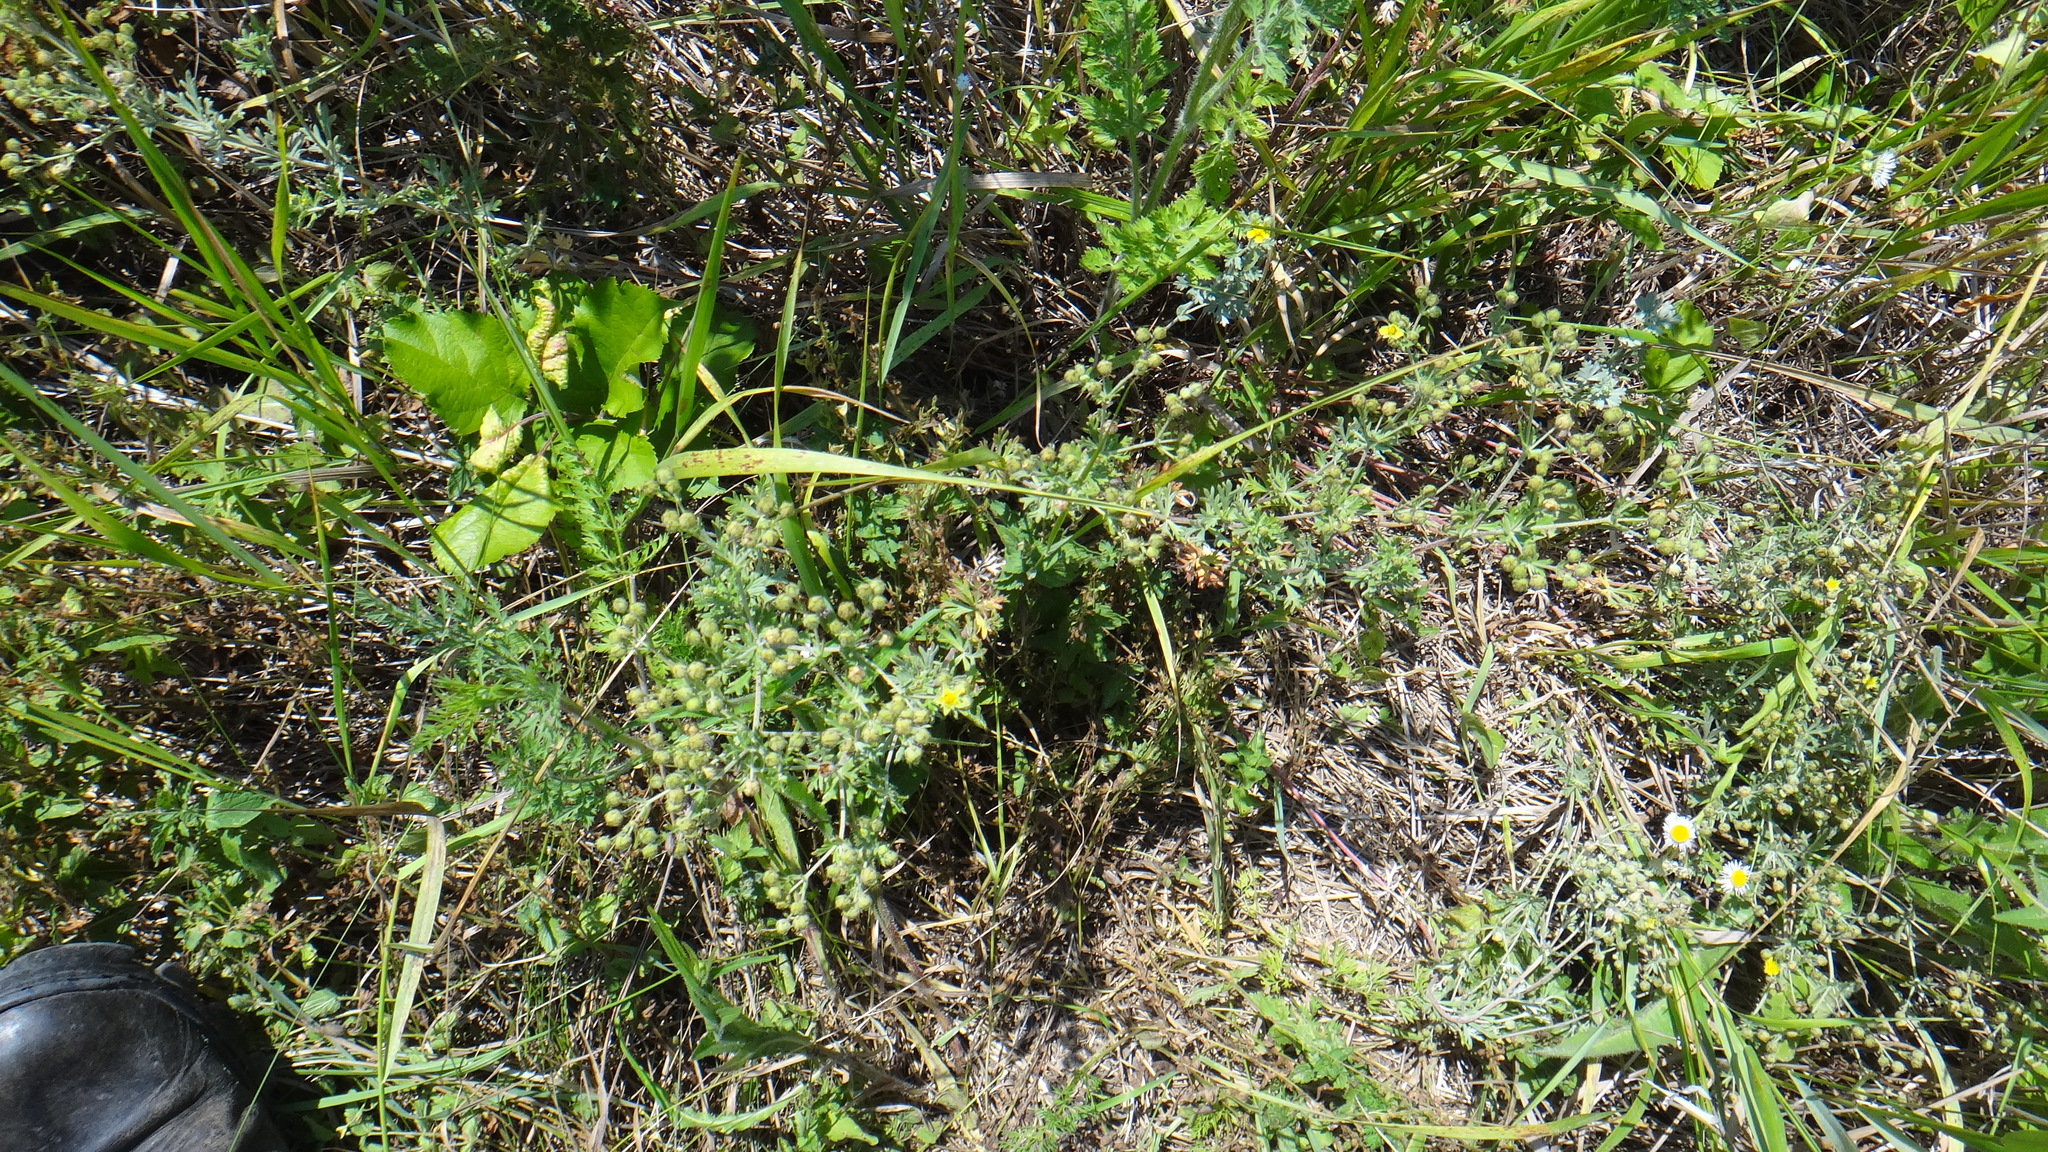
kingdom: Plantae
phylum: Tracheophyta
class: Magnoliopsida
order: Rosales
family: Rosaceae
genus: Potentilla
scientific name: Potentilla argentea
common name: Hoary cinquefoil
